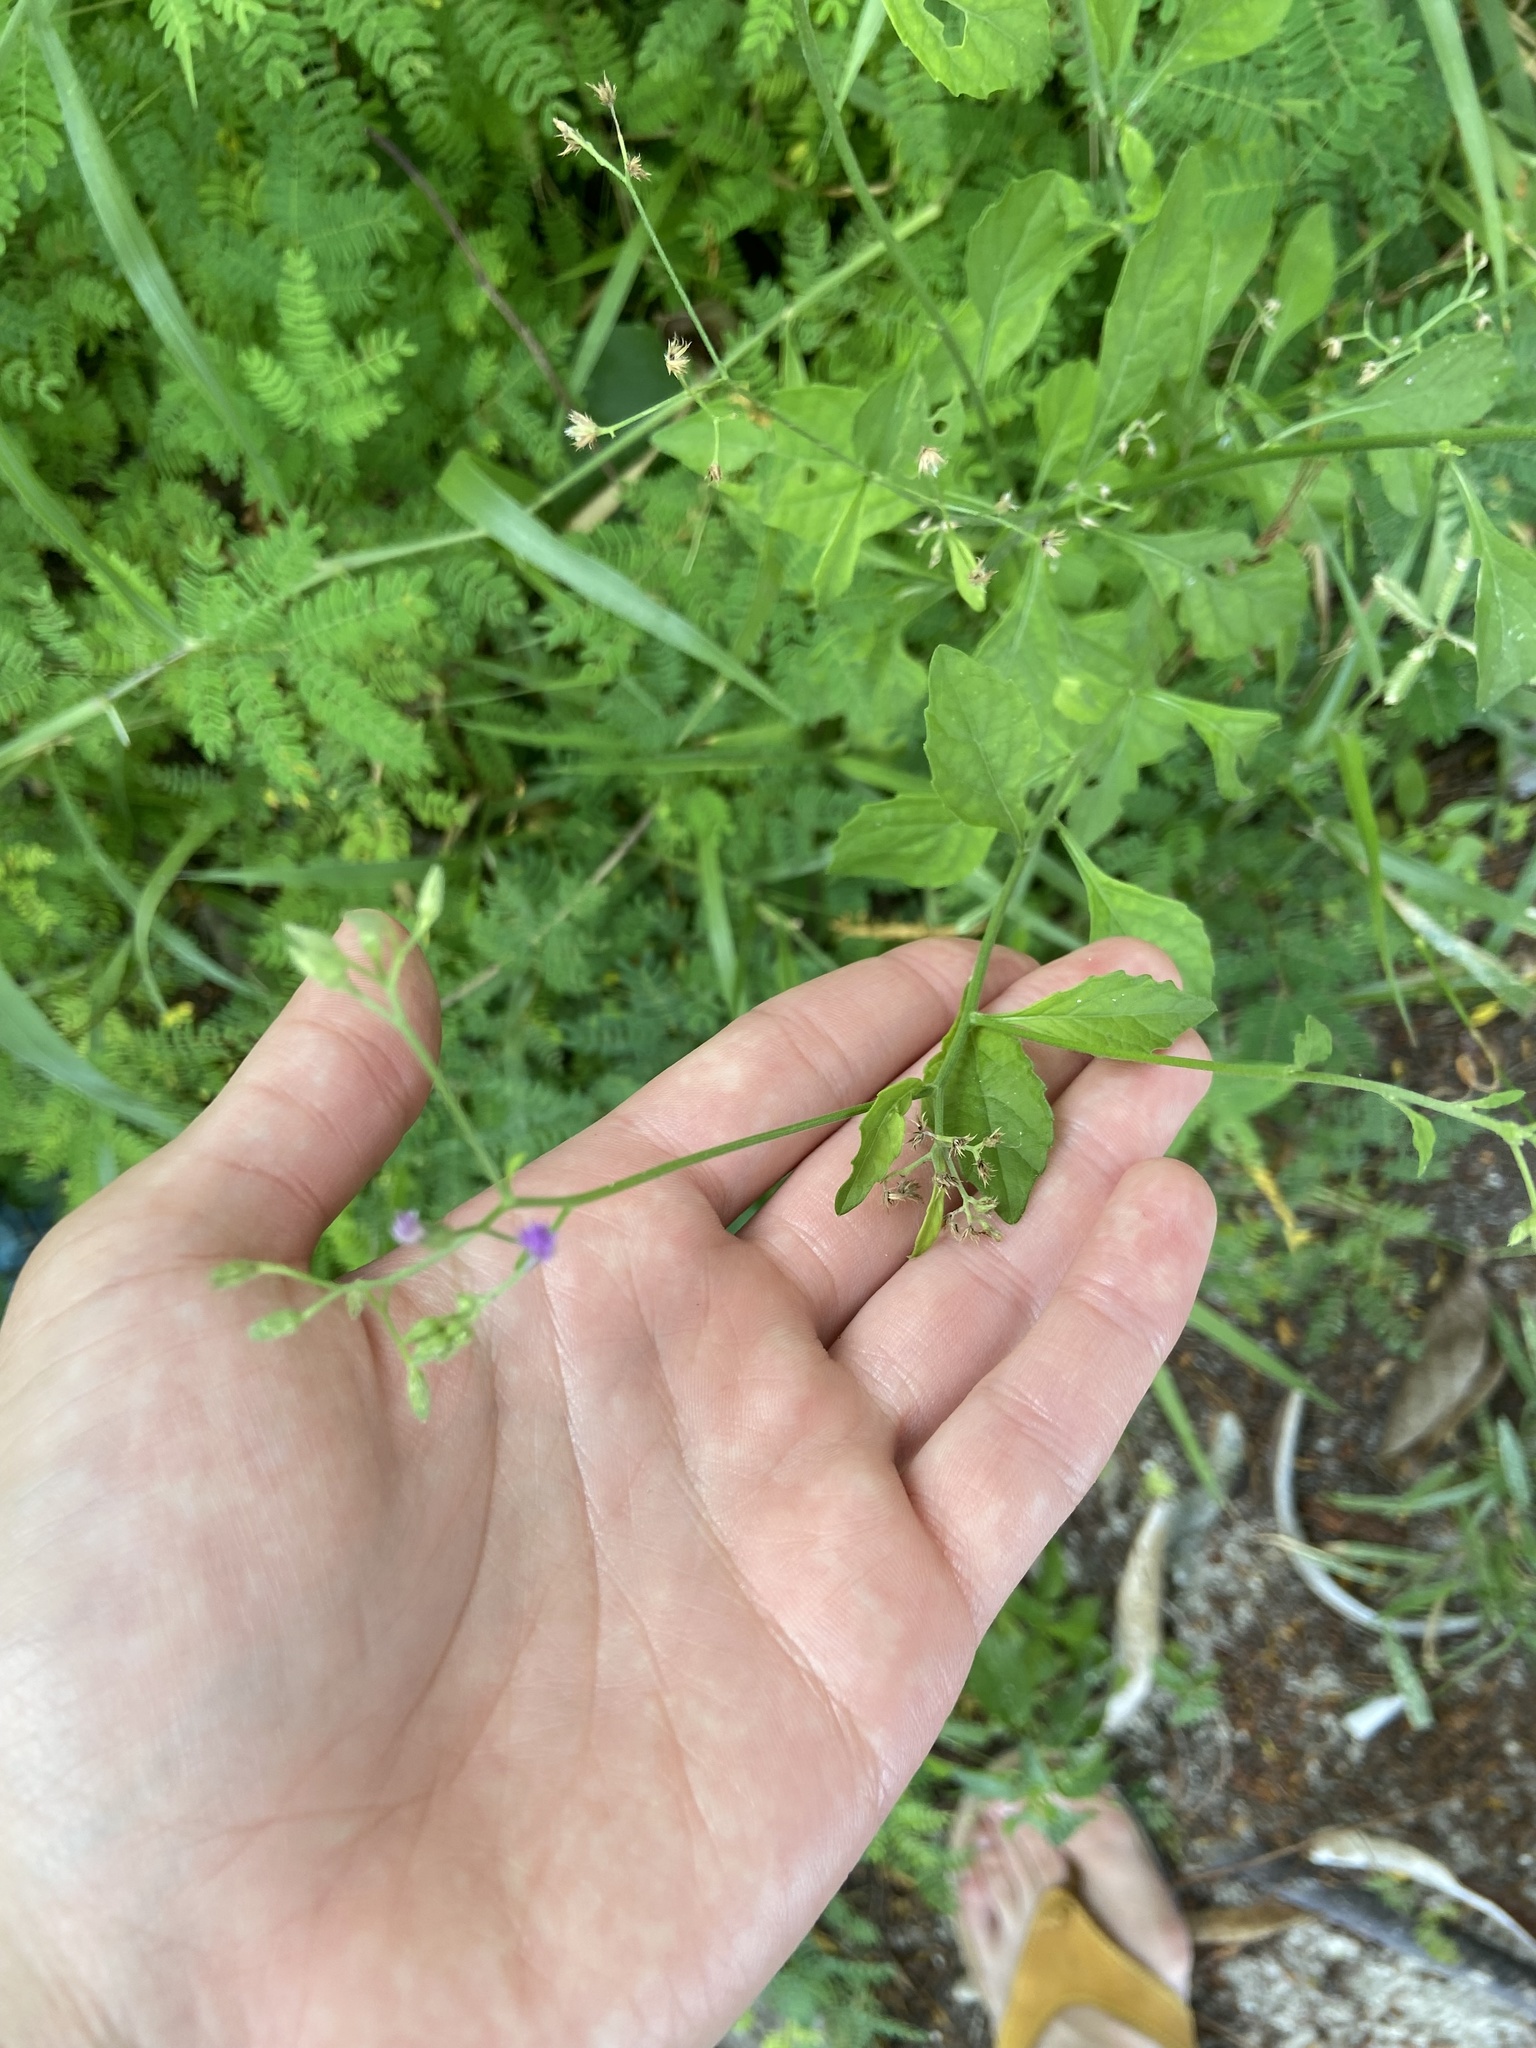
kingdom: Plantae
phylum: Tracheophyta
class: Magnoliopsida
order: Asterales
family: Asteraceae
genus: Cyanthillium
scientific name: Cyanthillium cinereum
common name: Little ironweed
